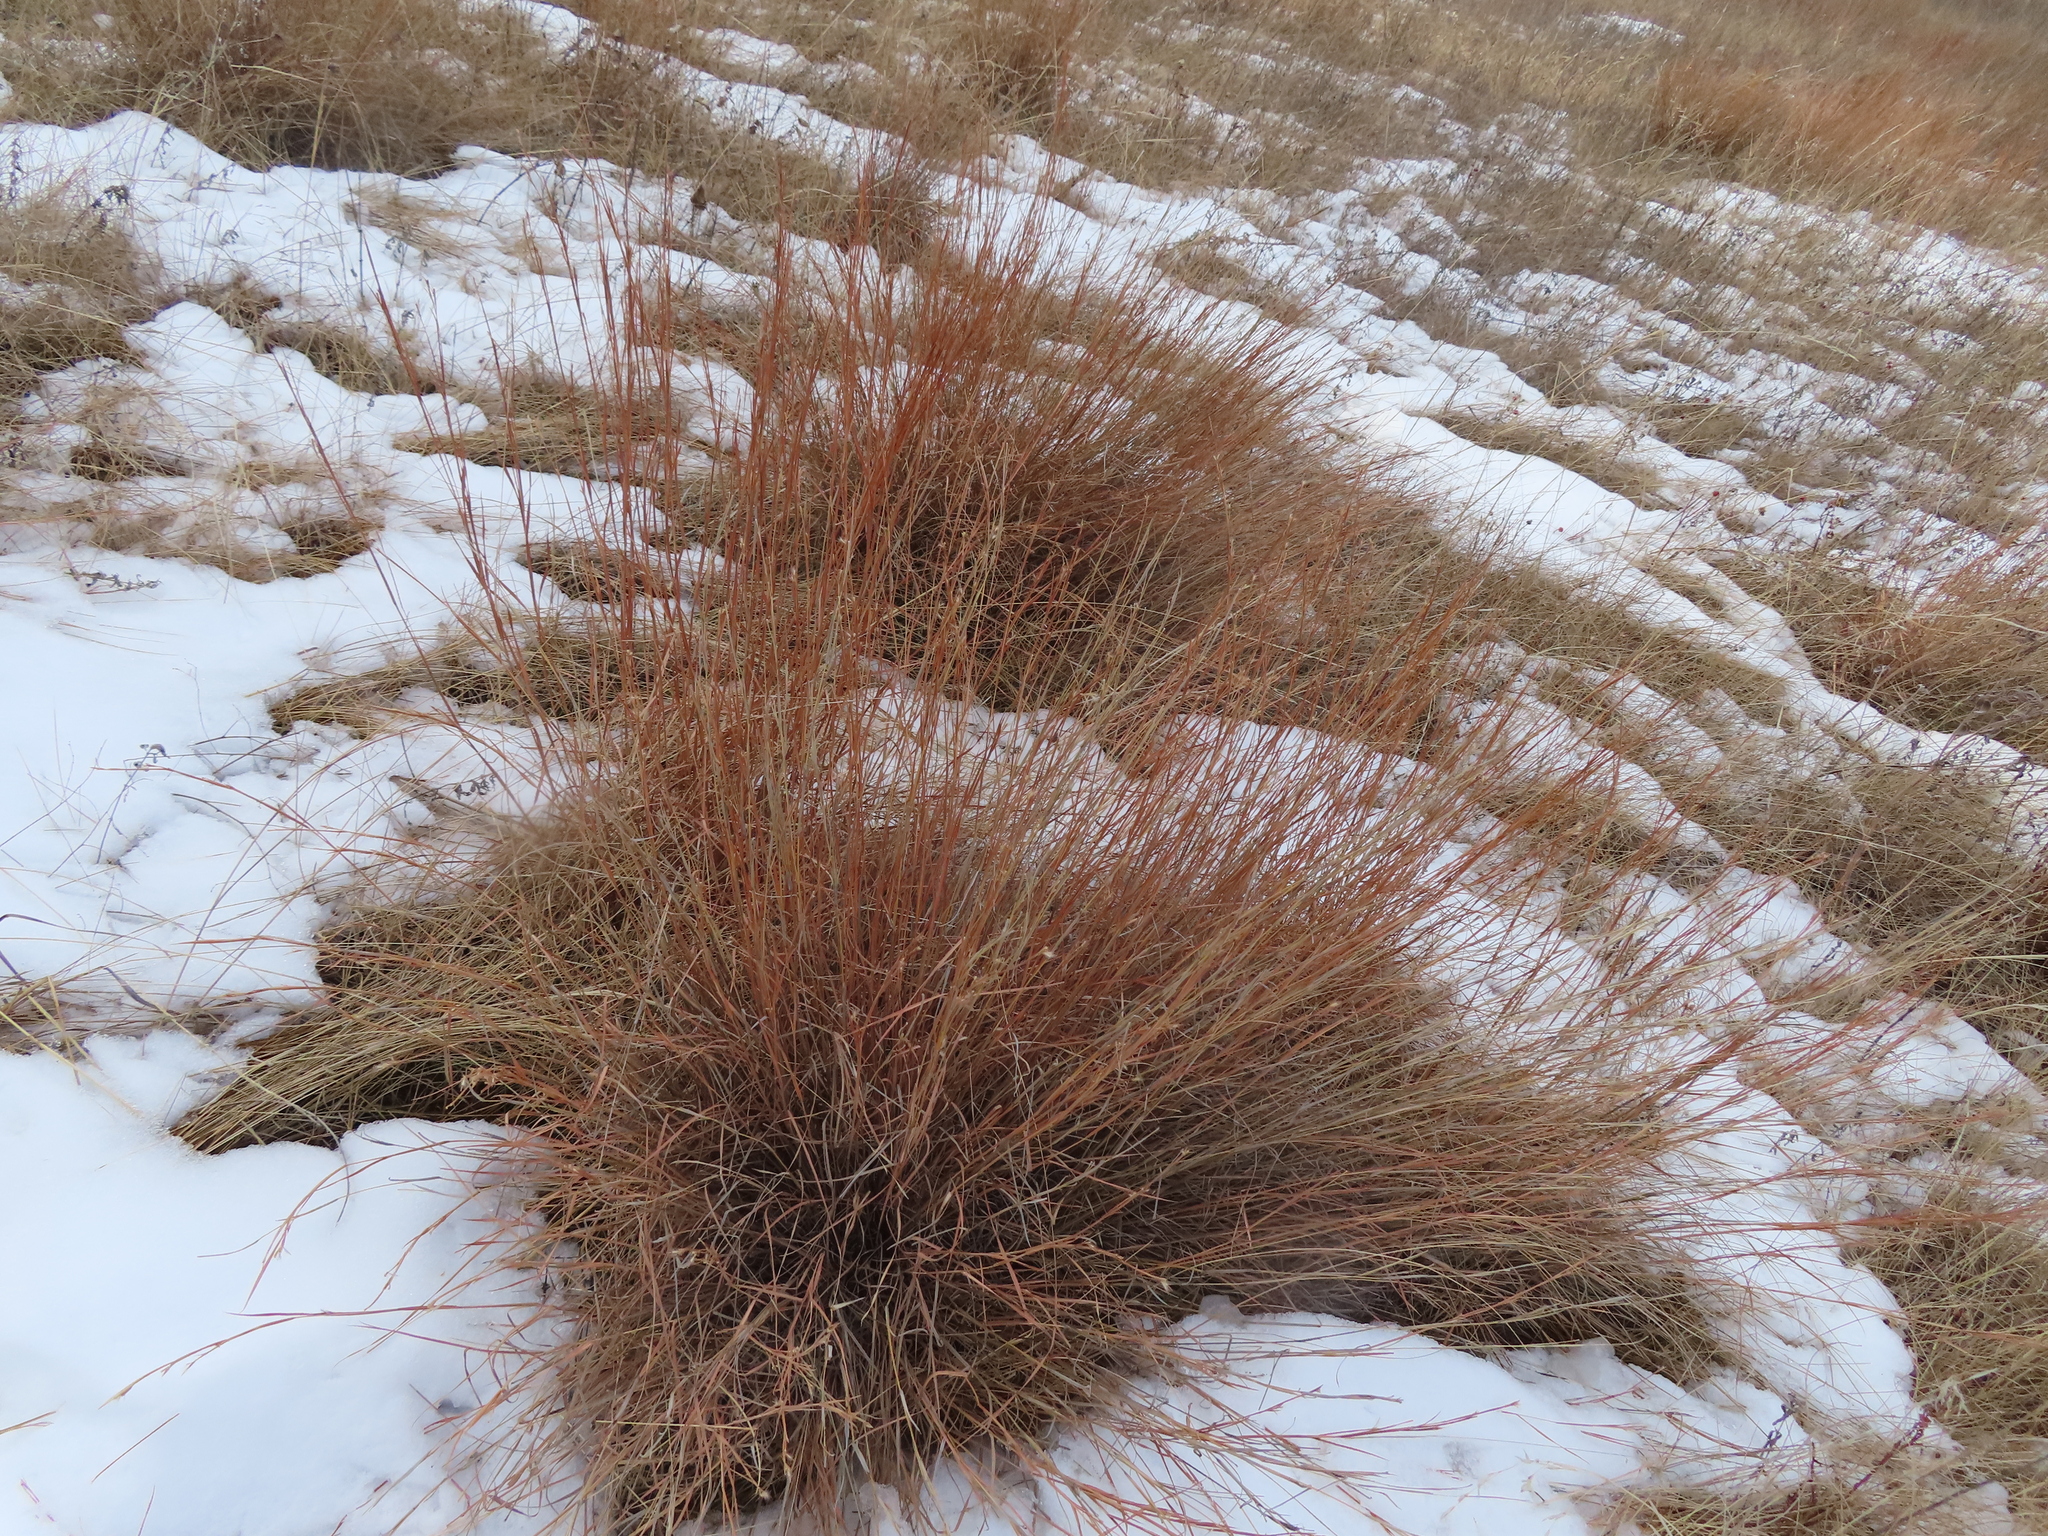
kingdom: Plantae
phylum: Tracheophyta
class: Liliopsida
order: Poales
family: Poaceae
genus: Schizachyrium
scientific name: Schizachyrium scoparium
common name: Little bluestem
